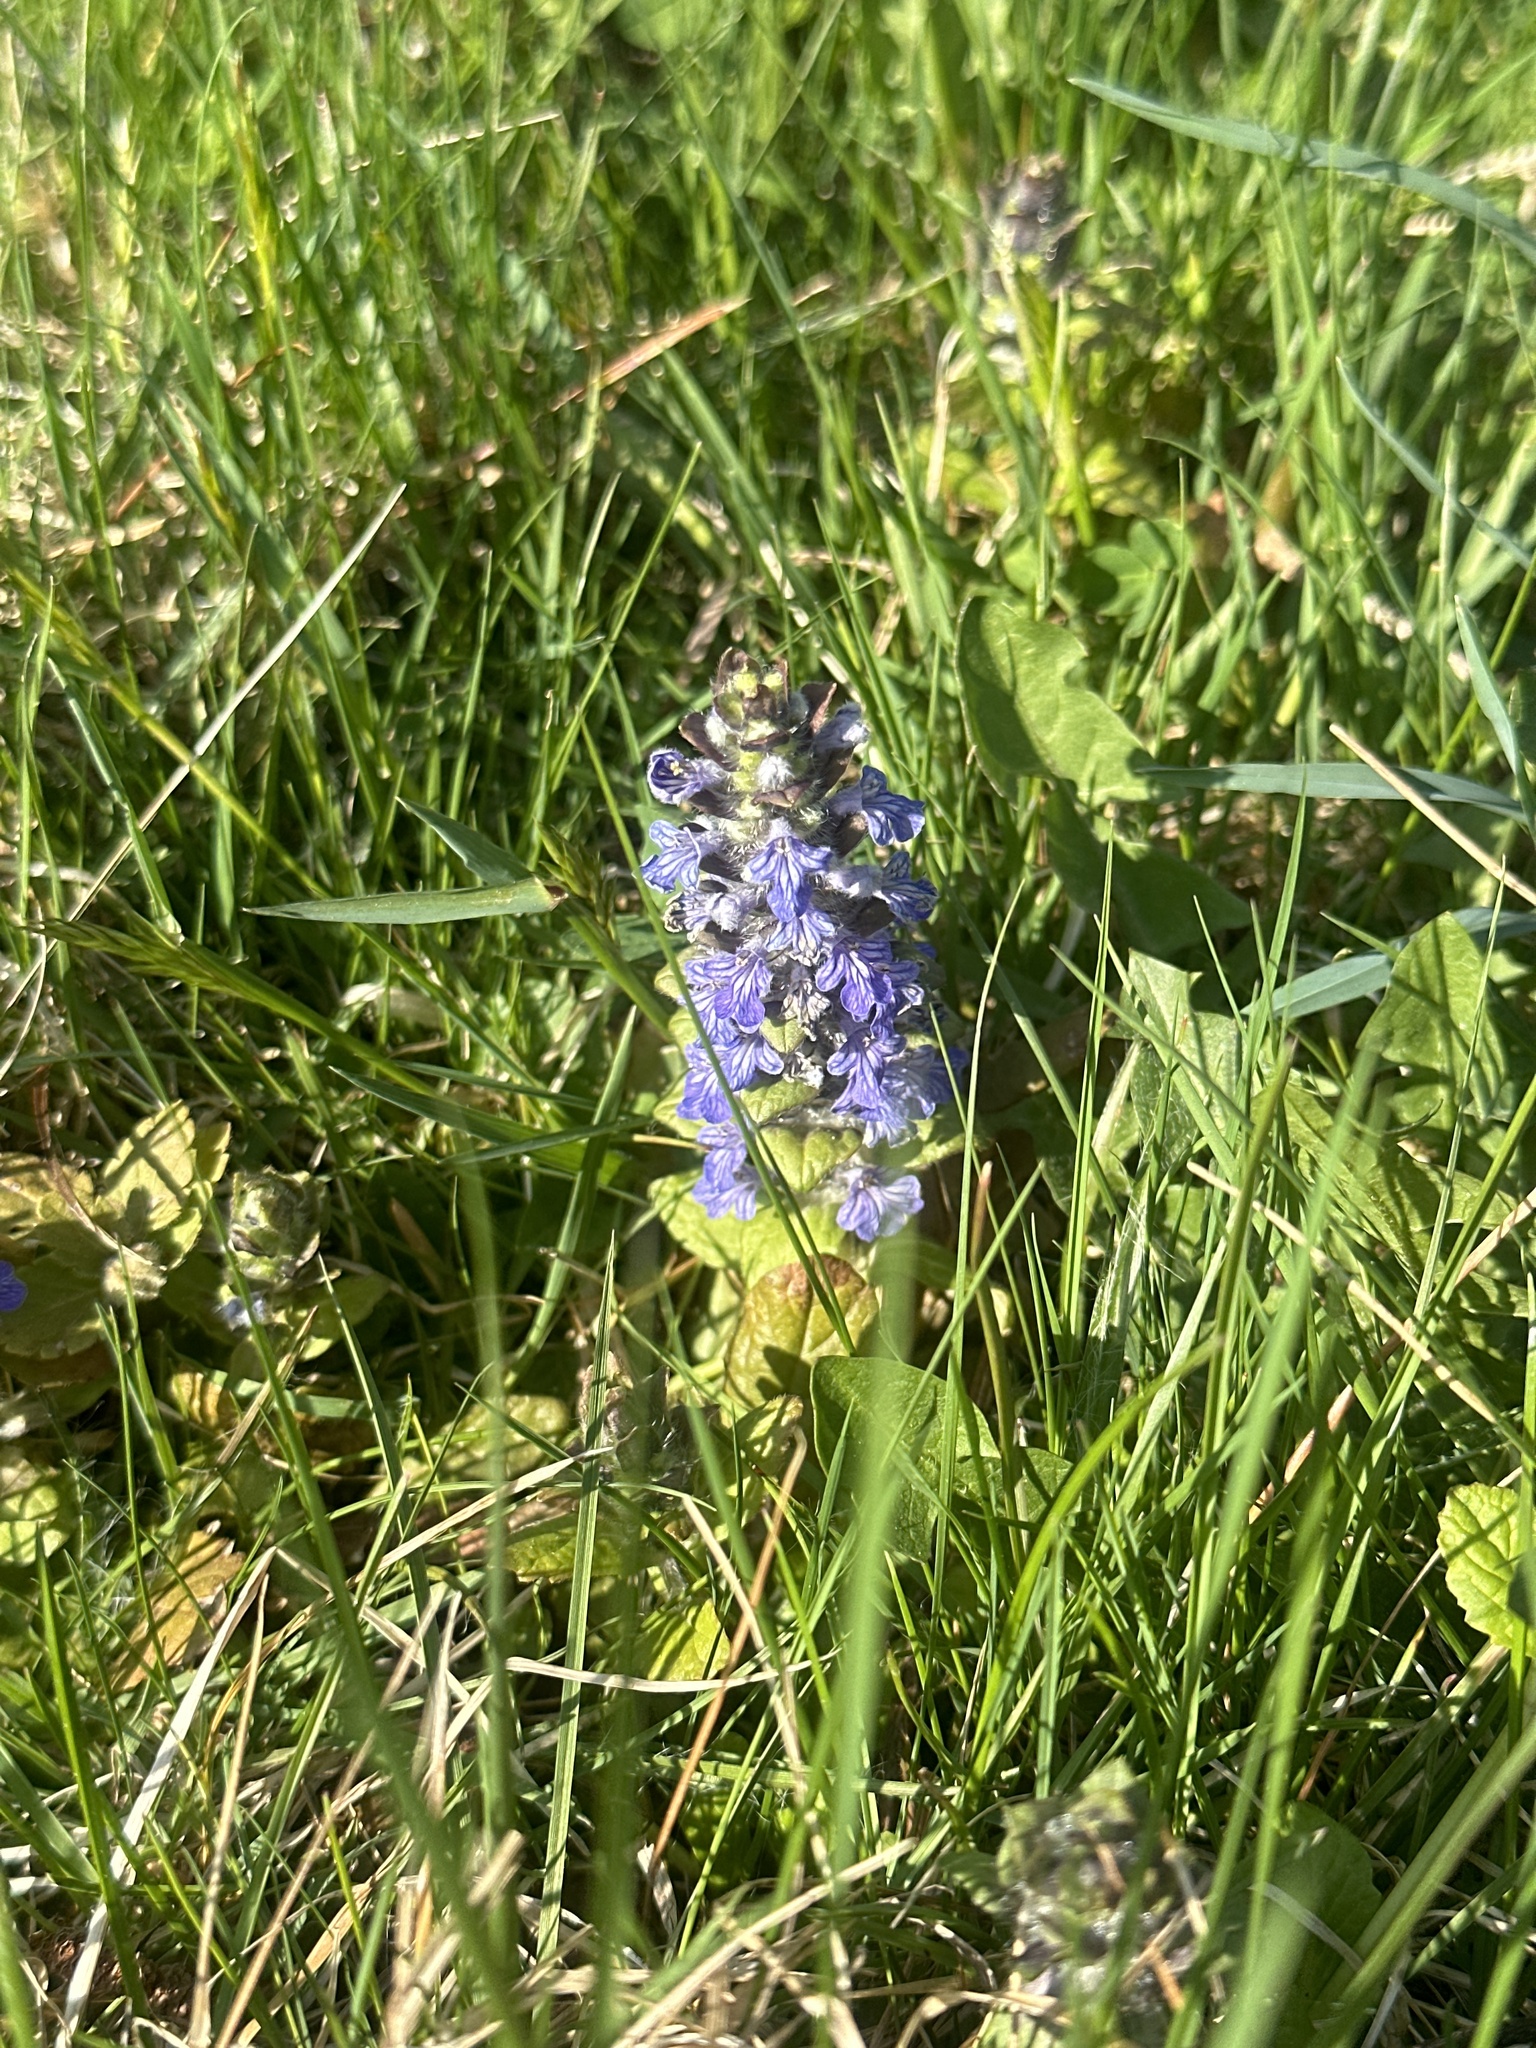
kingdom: Plantae
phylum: Tracheophyta
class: Magnoliopsida
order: Lamiales
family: Lamiaceae
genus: Ajuga
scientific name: Ajuga reptans
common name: Bugle
